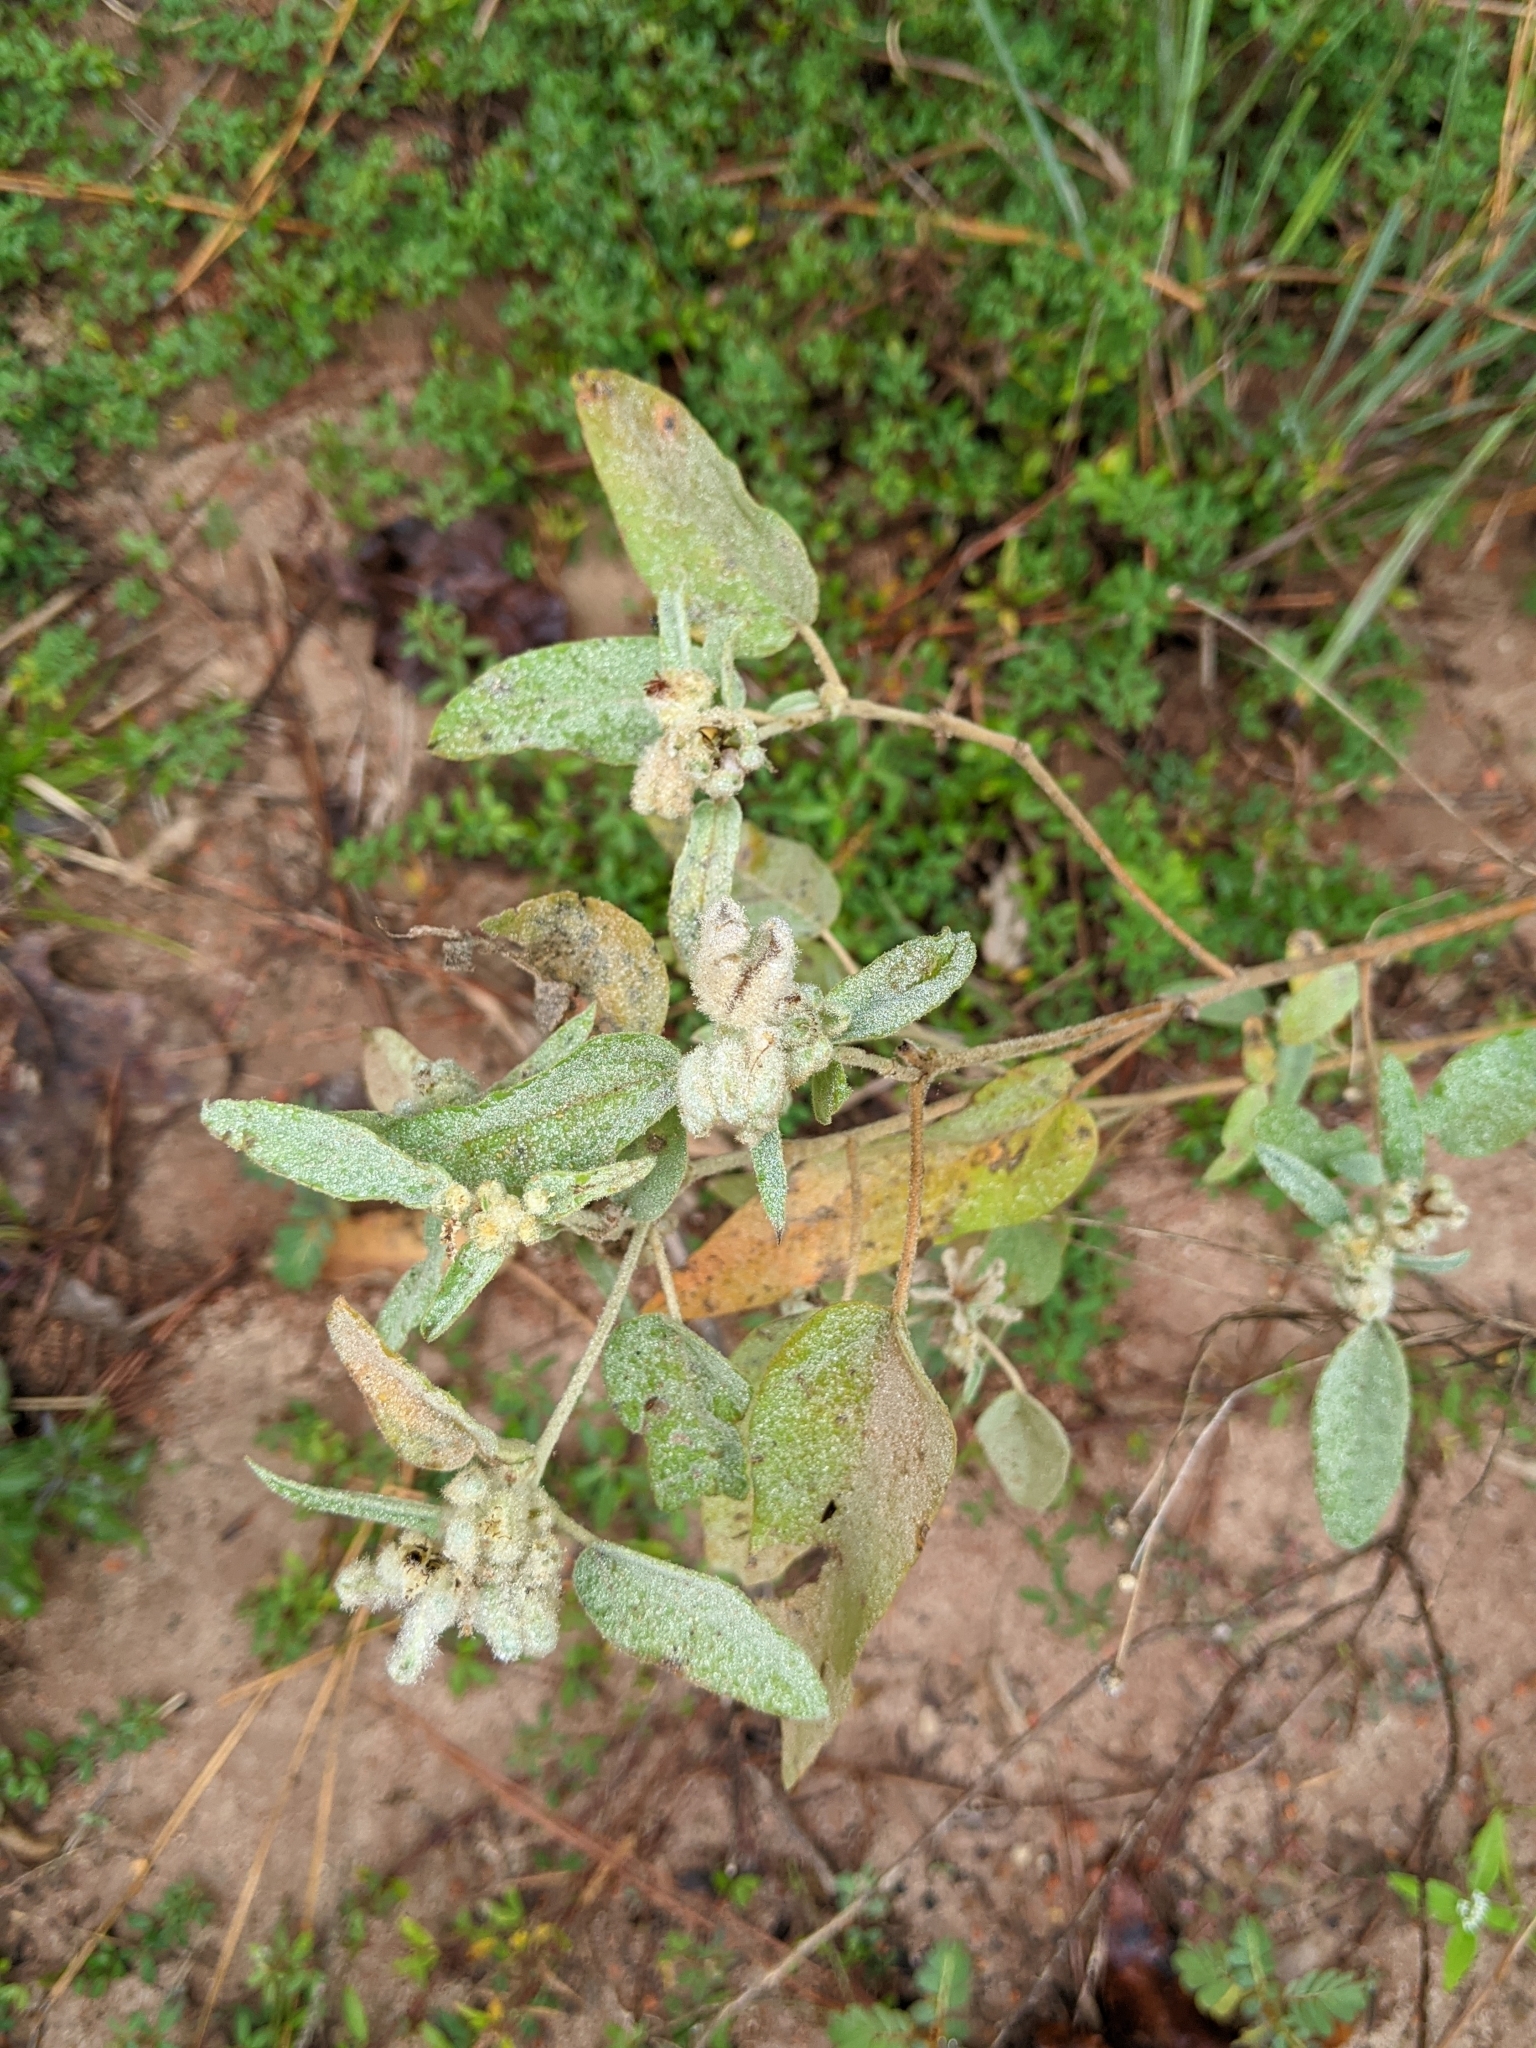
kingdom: Plantae
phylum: Tracheophyta
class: Magnoliopsida
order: Malpighiales
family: Euphorbiaceae
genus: Croton
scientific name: Croton heptalon
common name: Woolly croton
